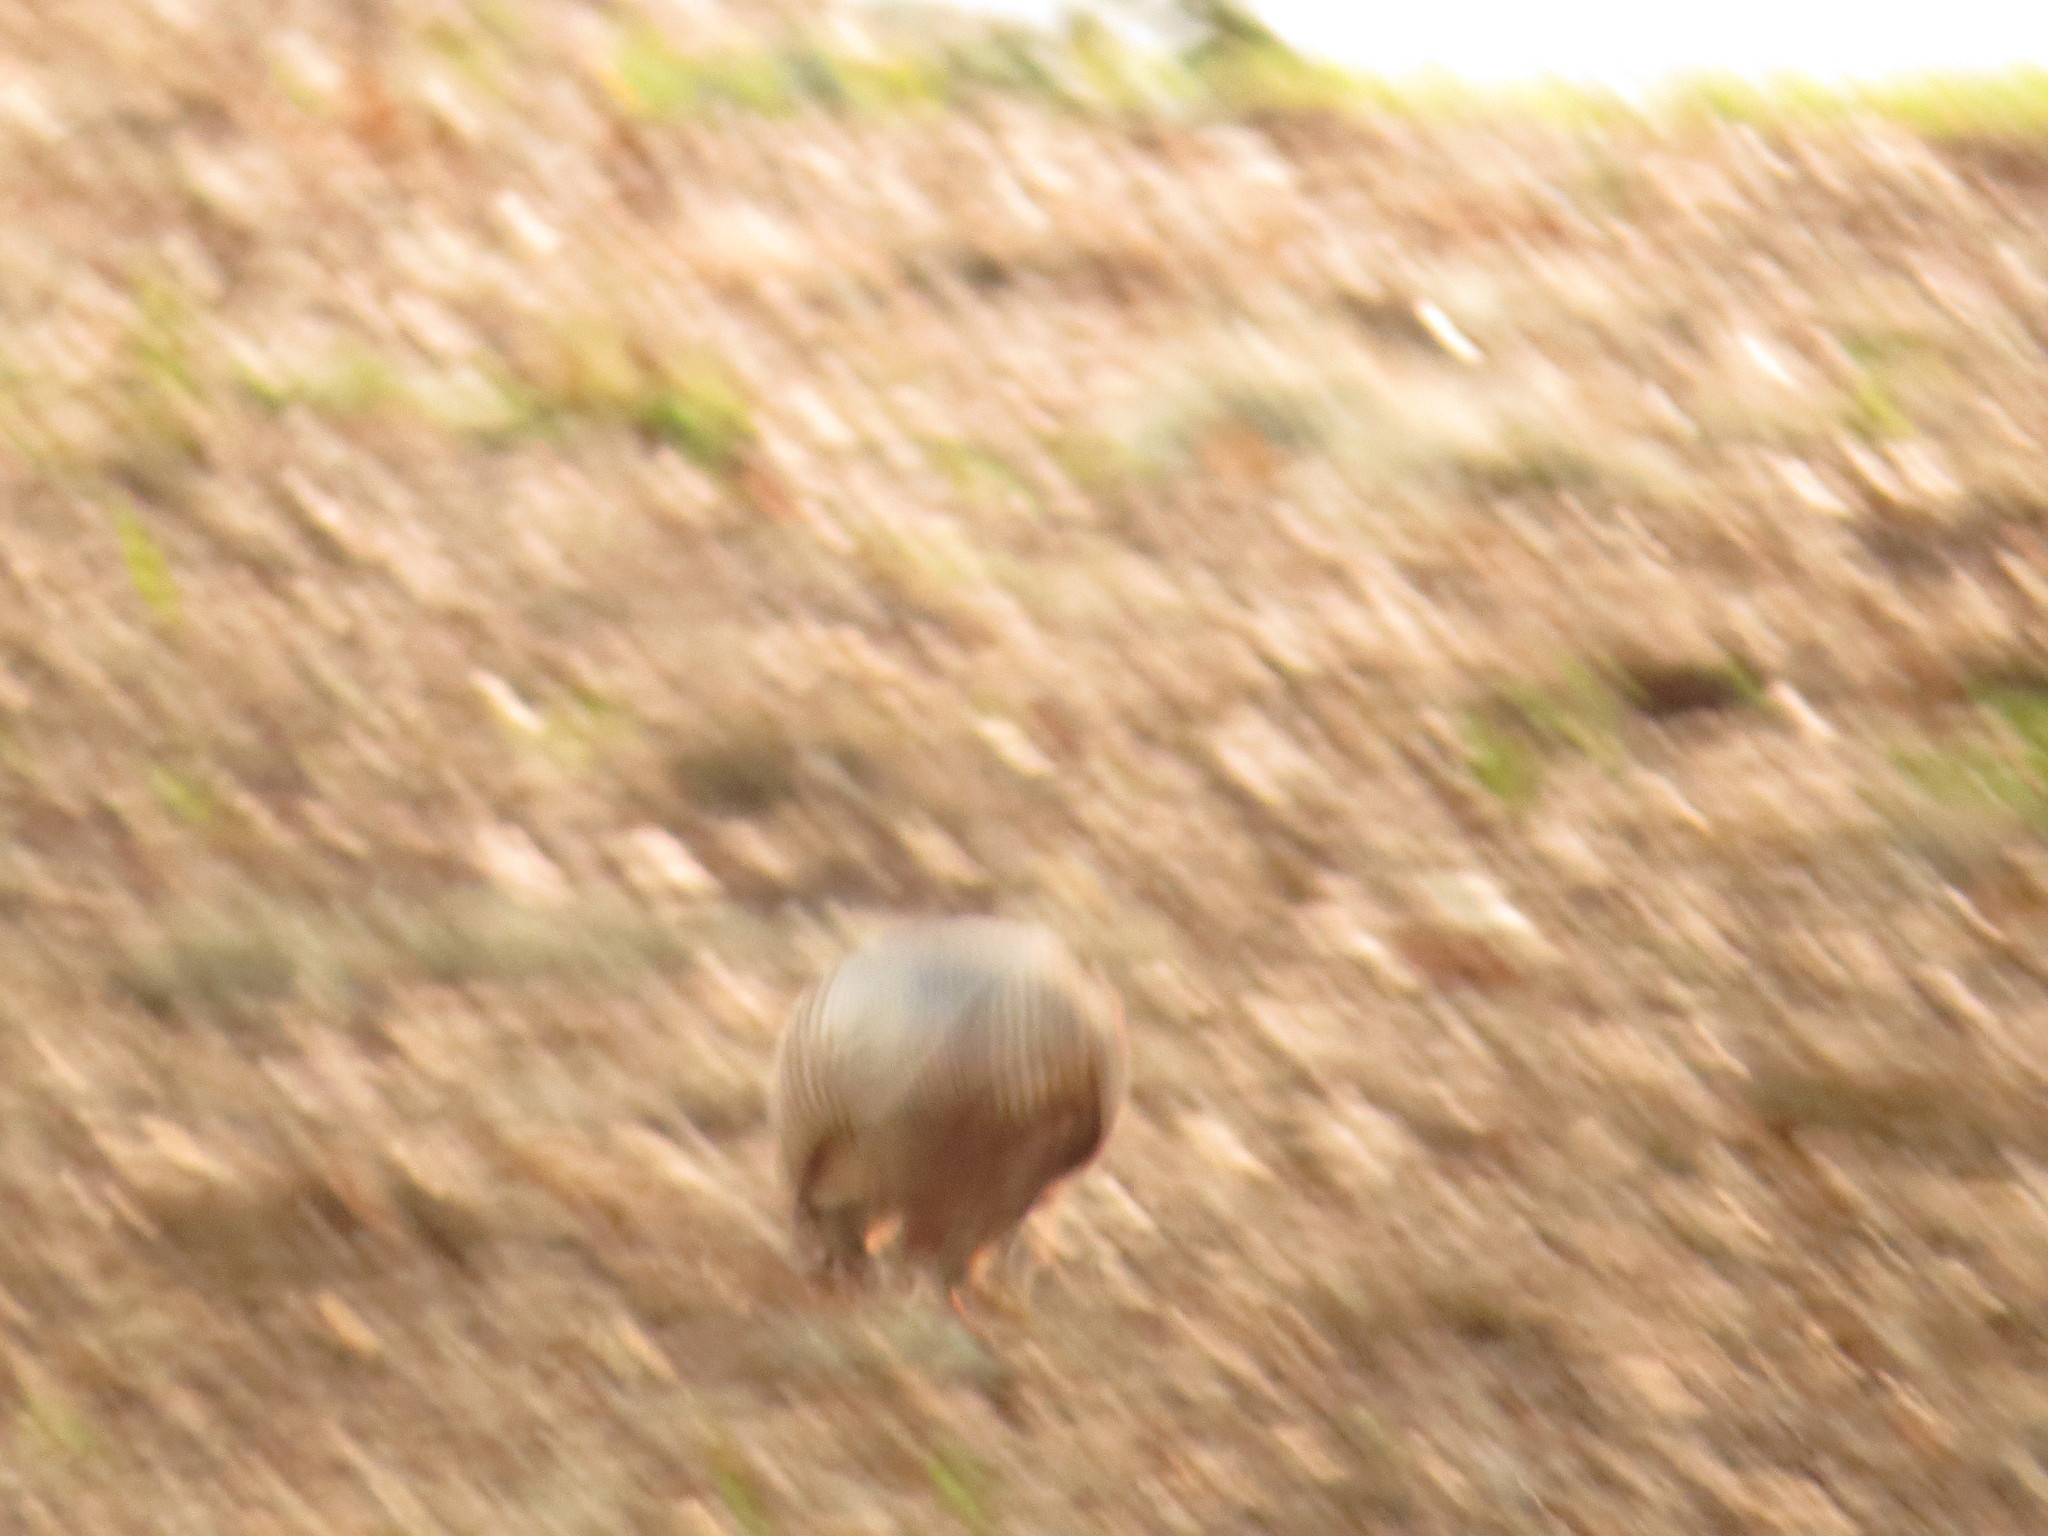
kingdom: Animalia
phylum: Chordata
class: Mammalia
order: Cingulata
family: Dasypodidae
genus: Dasypus
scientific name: Dasypus novemcinctus
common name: Nine-banded armadillo
